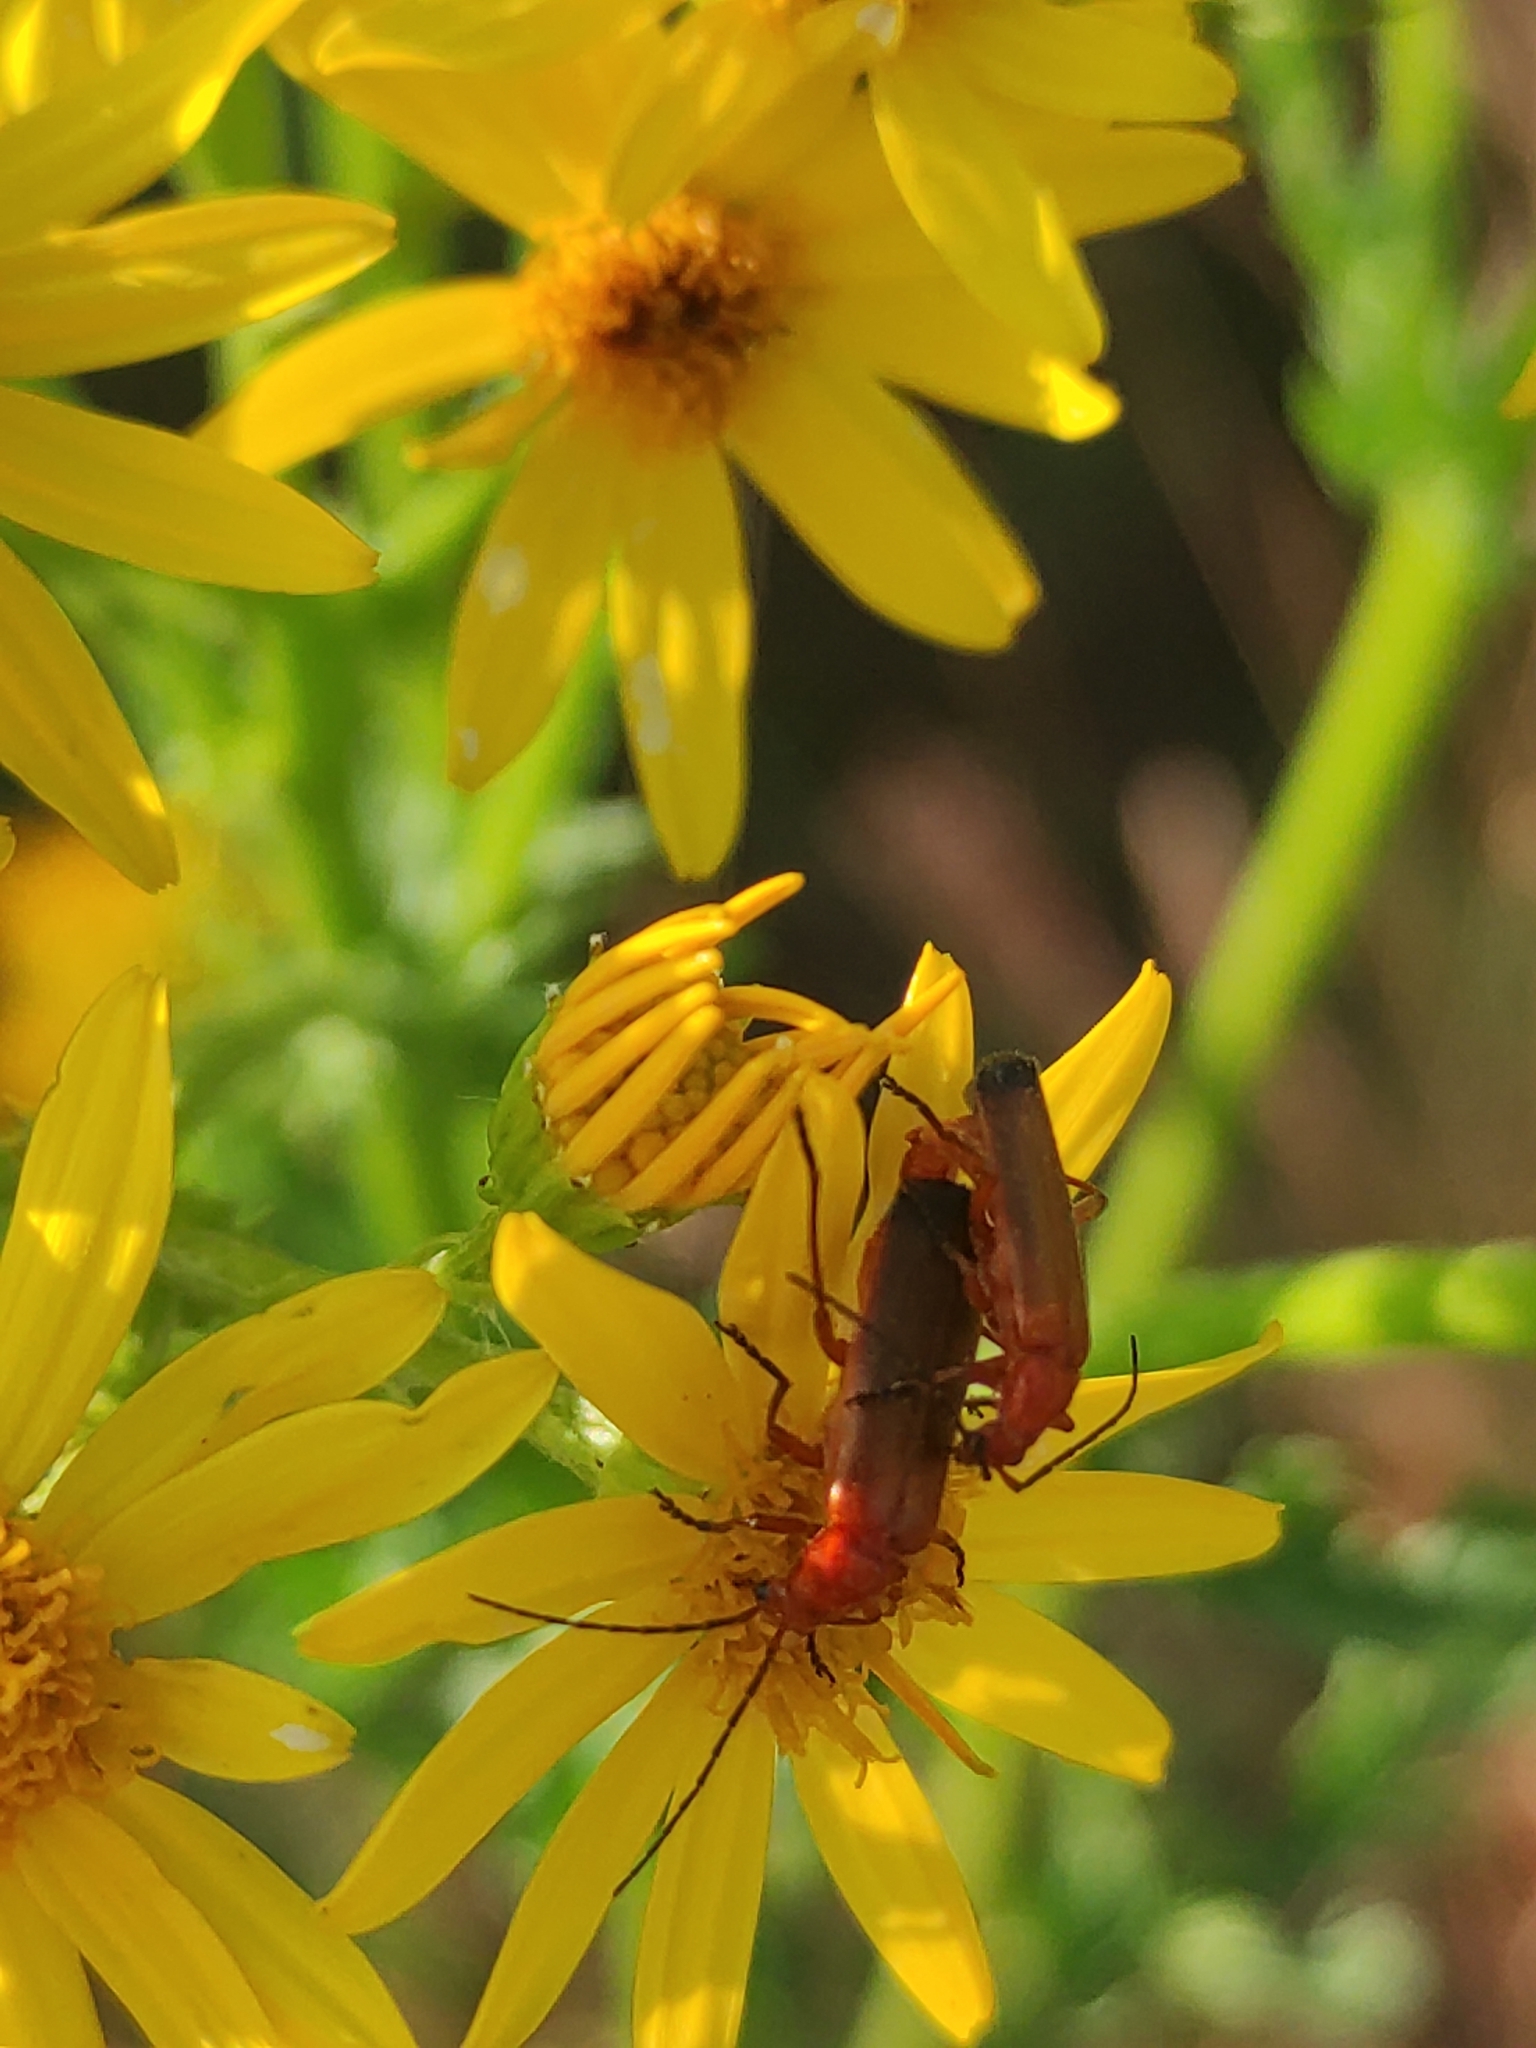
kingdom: Animalia
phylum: Arthropoda
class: Insecta
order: Coleoptera
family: Cantharidae
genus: Rhagonycha
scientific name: Rhagonycha fulva
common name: Common red soldier beetle
